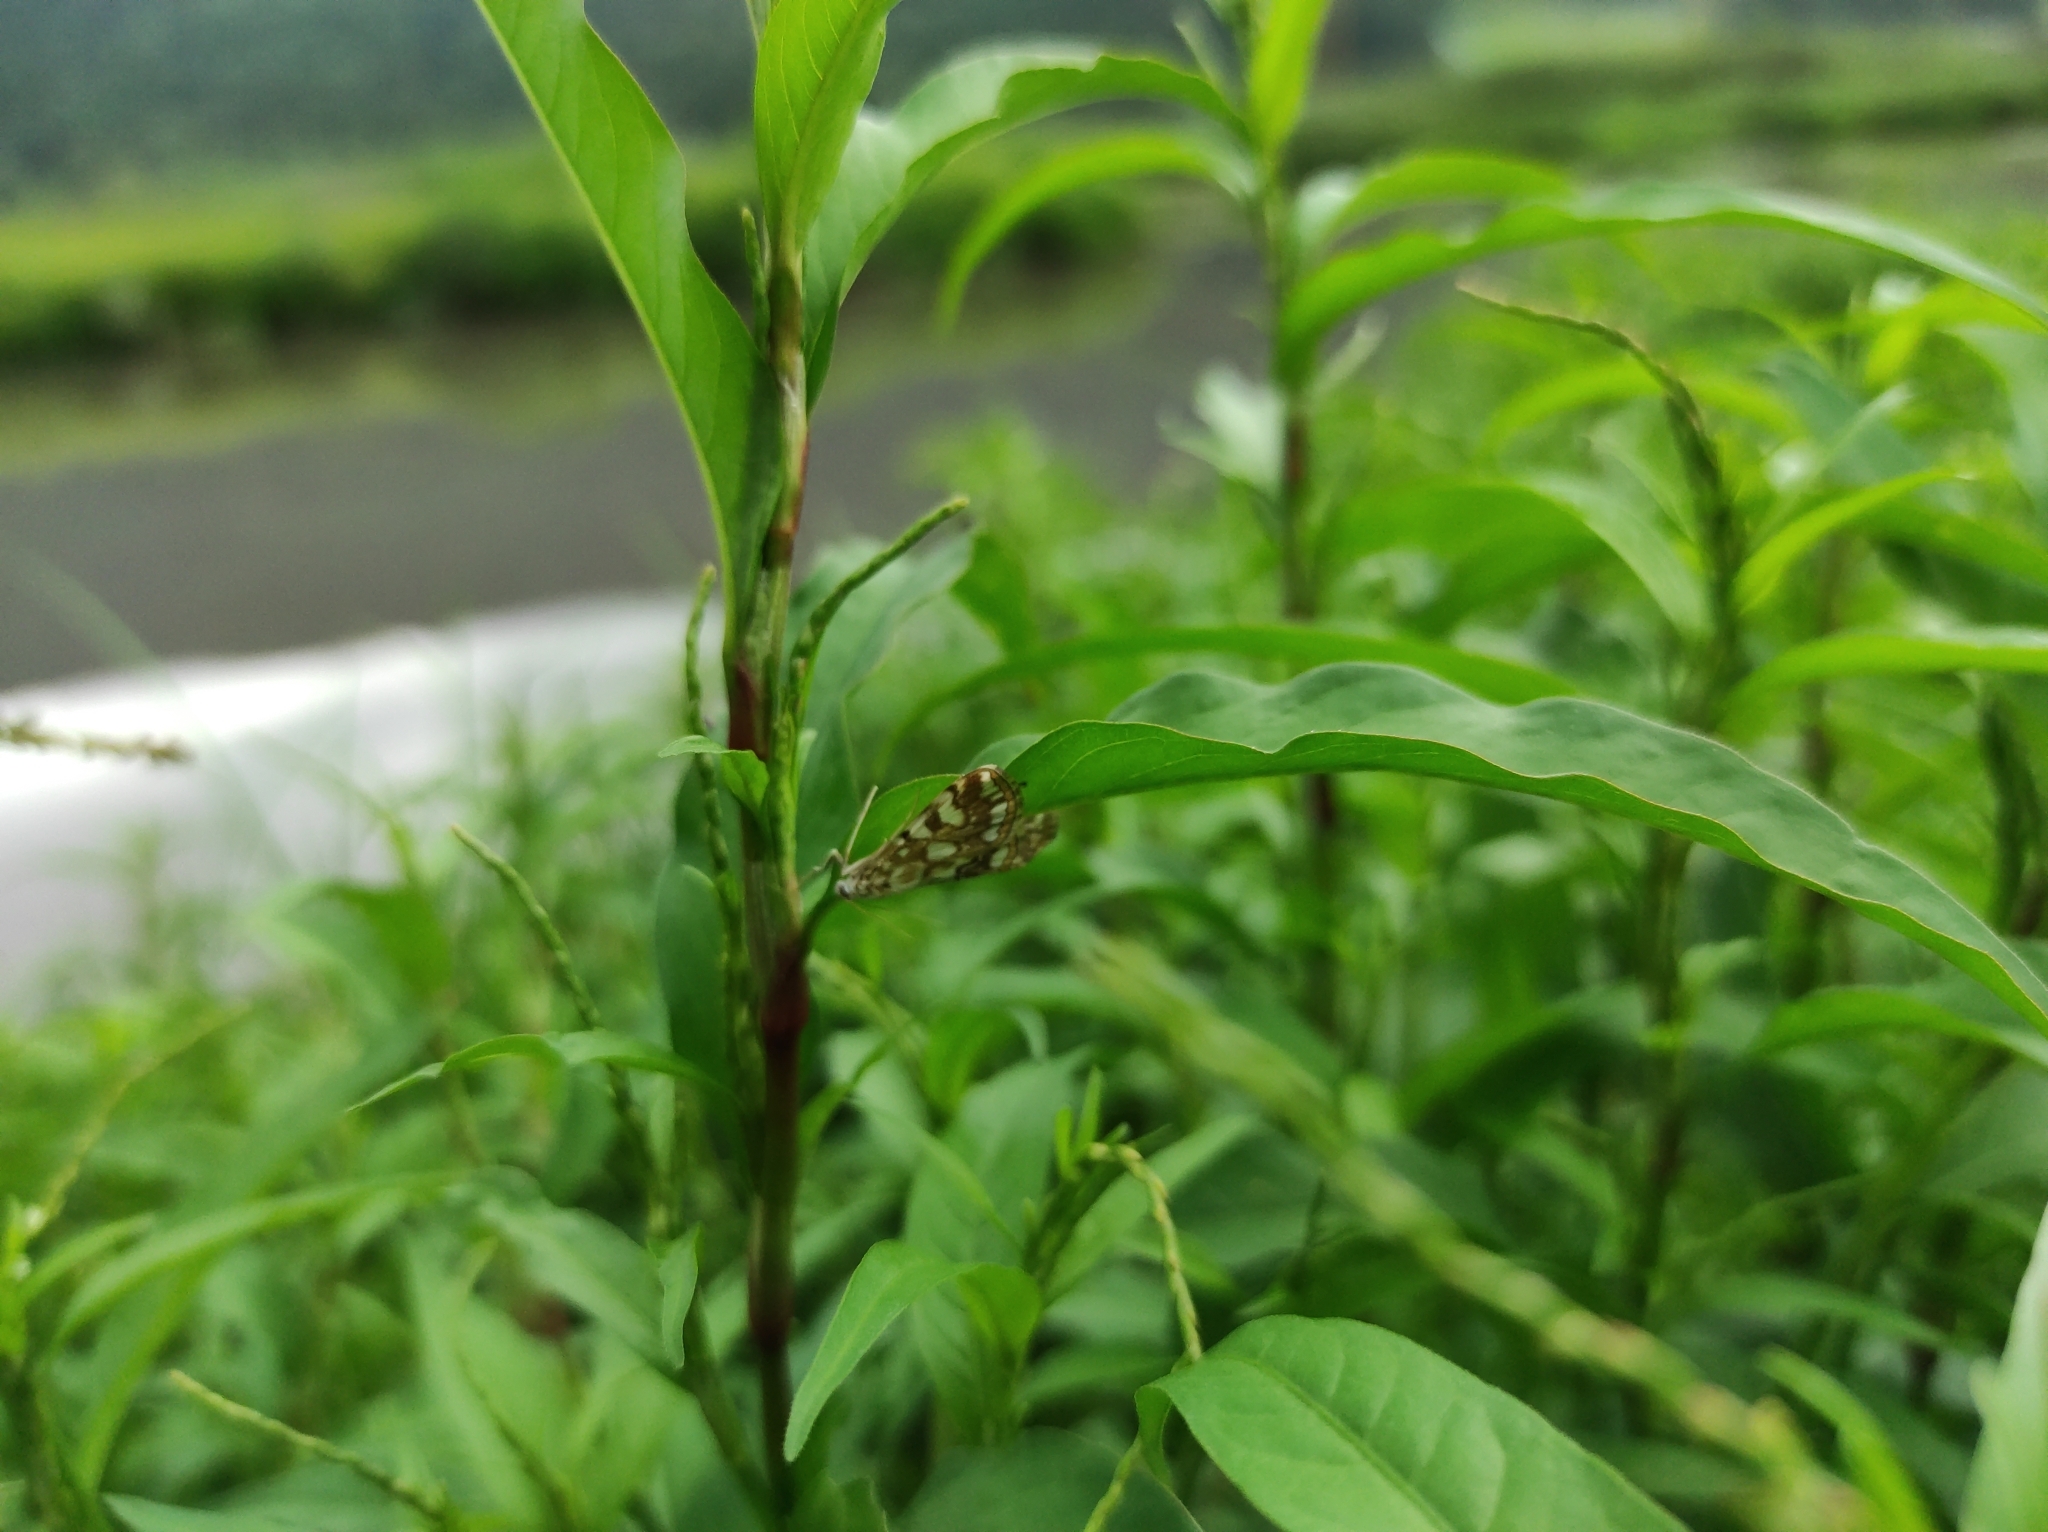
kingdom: Plantae
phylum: Tracheophyta
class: Magnoliopsida
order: Caryophyllales
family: Polygonaceae
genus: Persicaria
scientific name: Persicaria hydropiper
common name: Water-pepper
